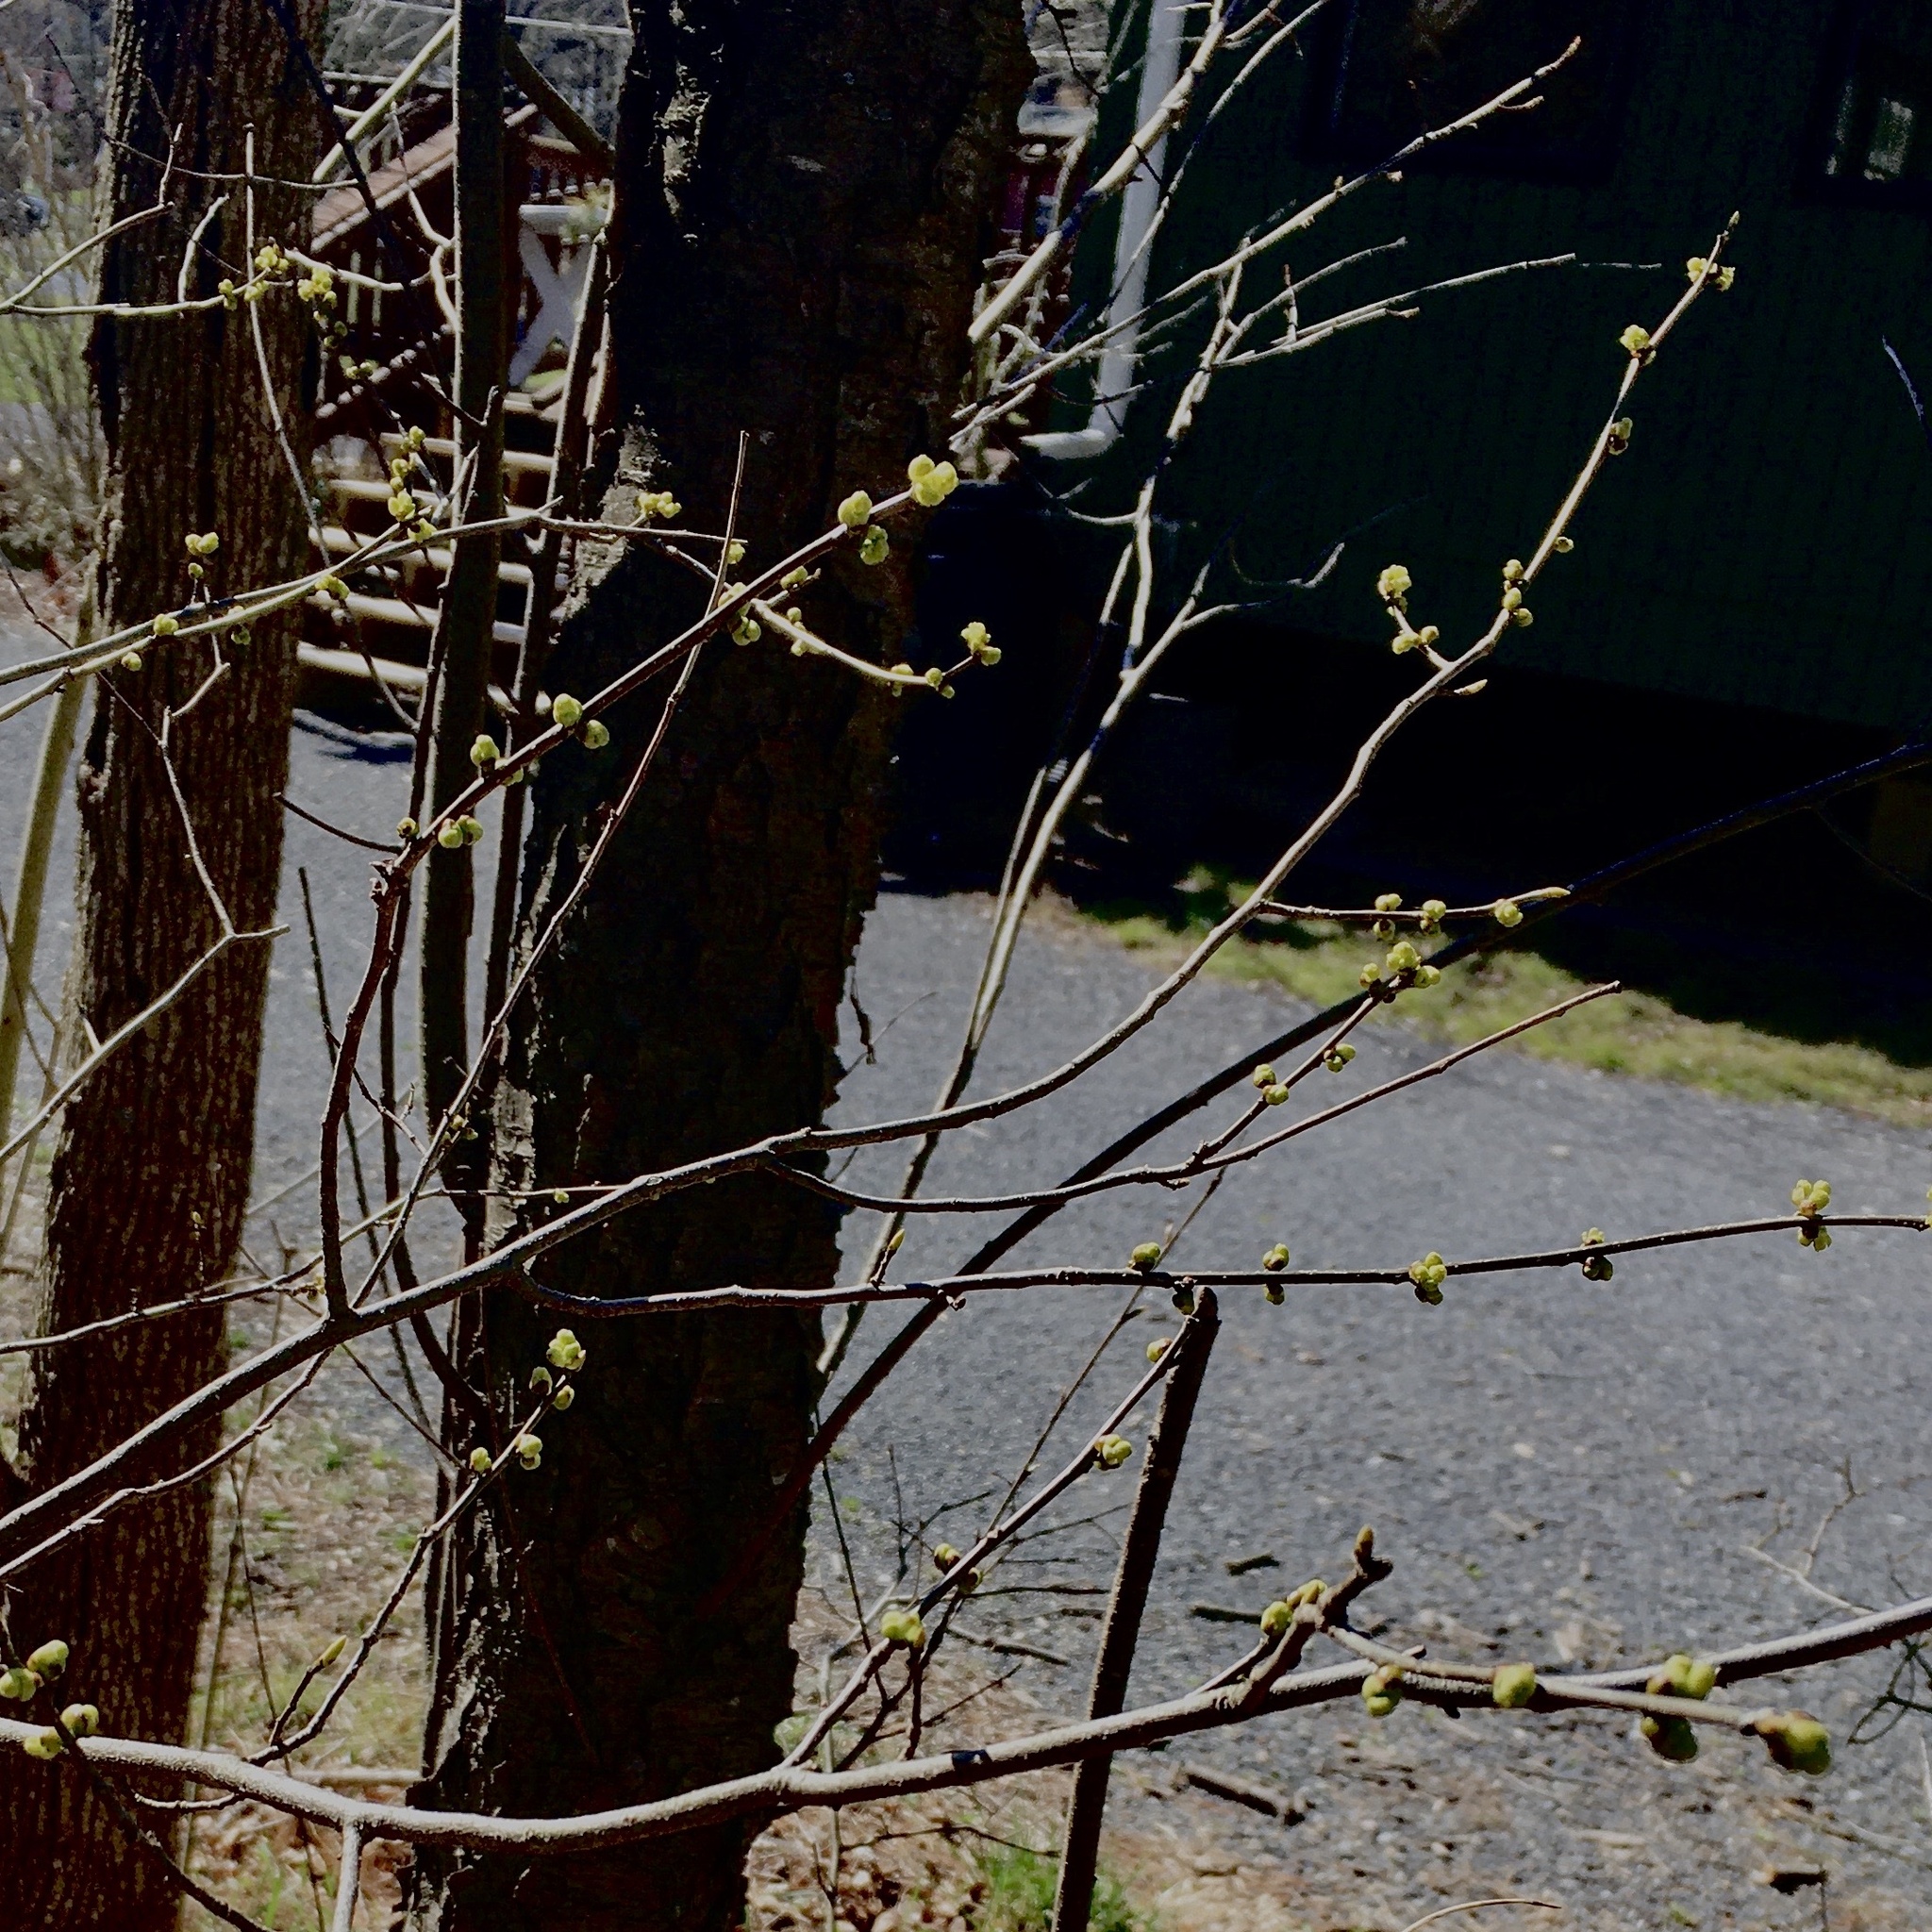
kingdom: Plantae
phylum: Tracheophyta
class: Magnoliopsida
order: Laurales
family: Lauraceae
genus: Lindera
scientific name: Lindera benzoin
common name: Spicebush
